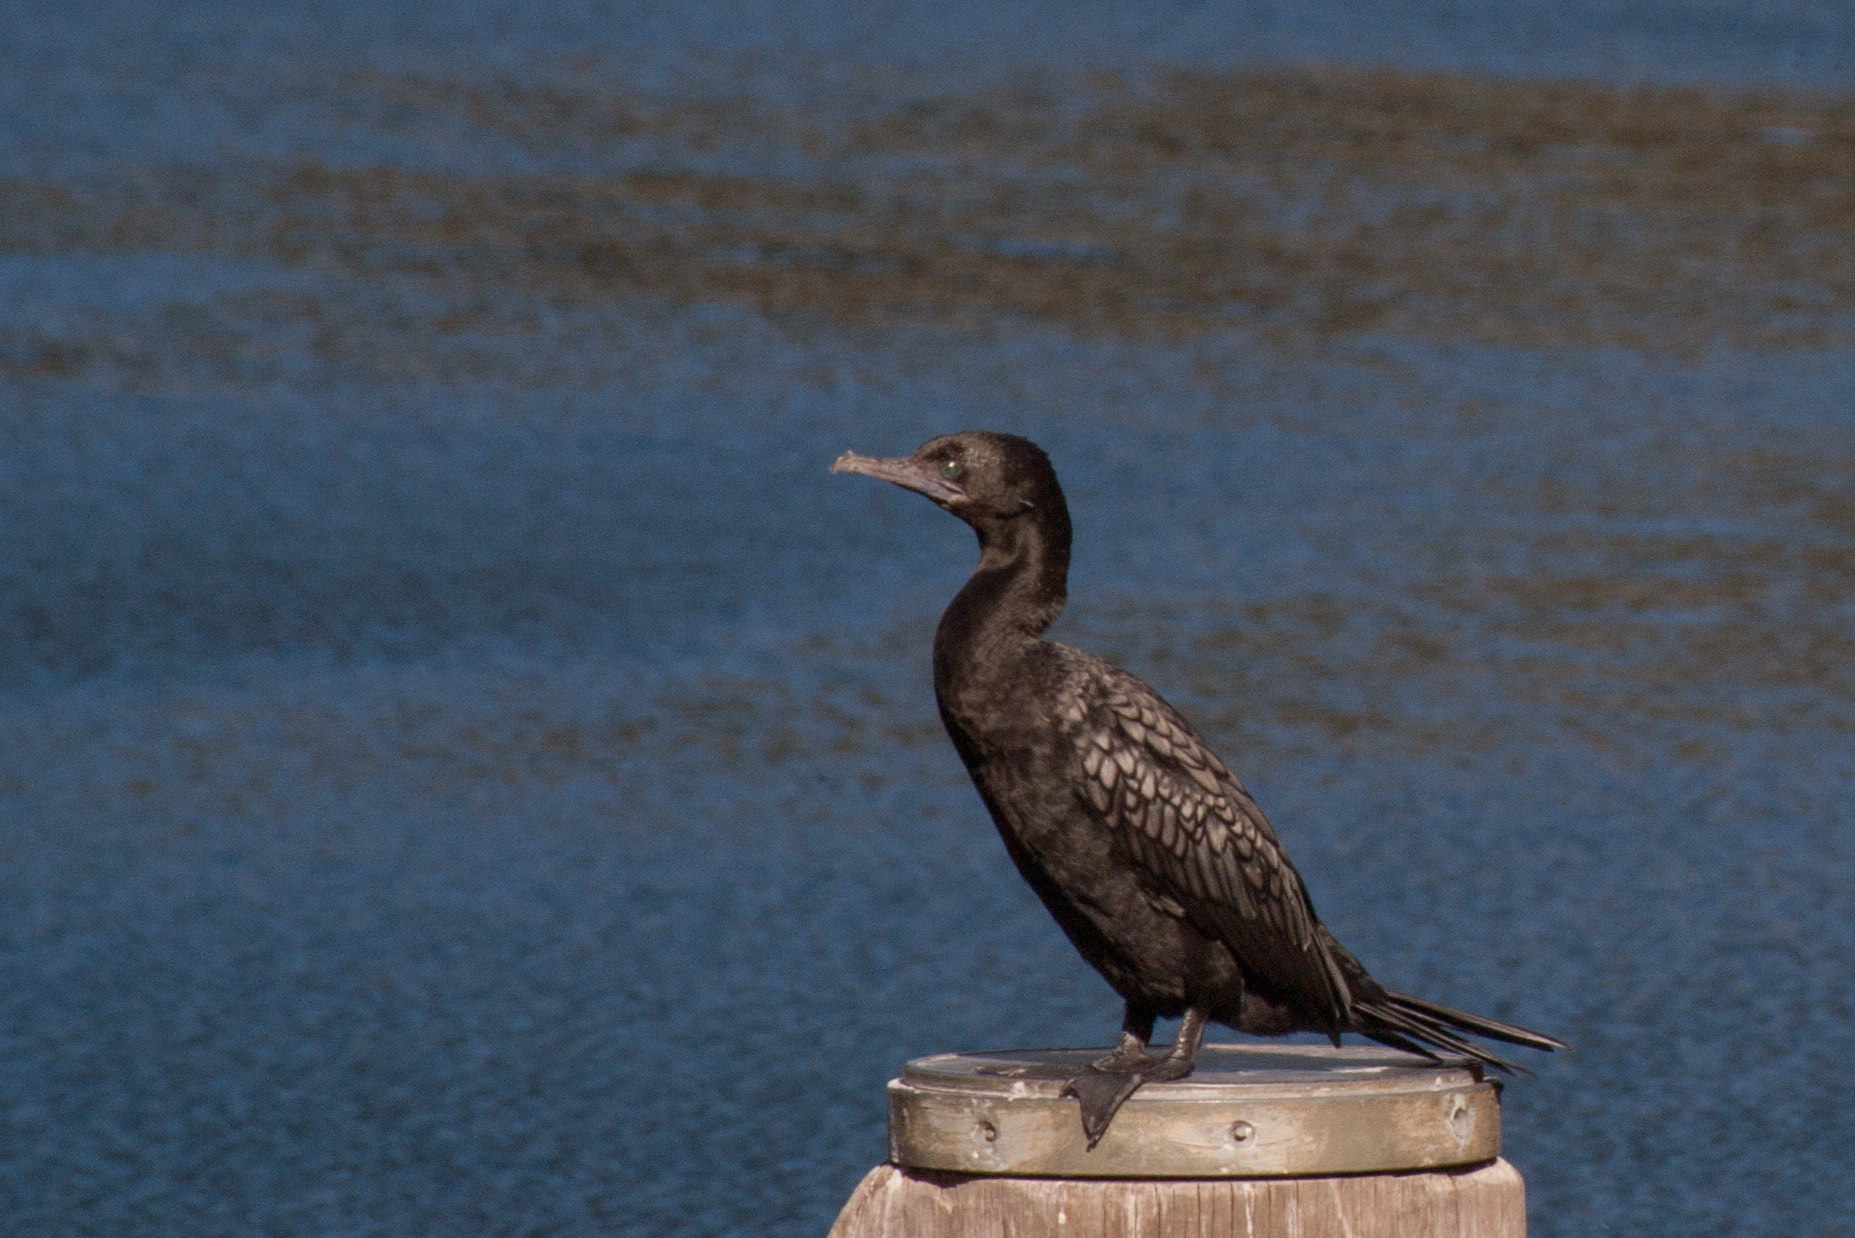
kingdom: Animalia
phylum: Chordata
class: Aves
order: Suliformes
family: Phalacrocoracidae
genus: Phalacrocorax
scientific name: Phalacrocorax sulcirostris
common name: Little black cormorant
